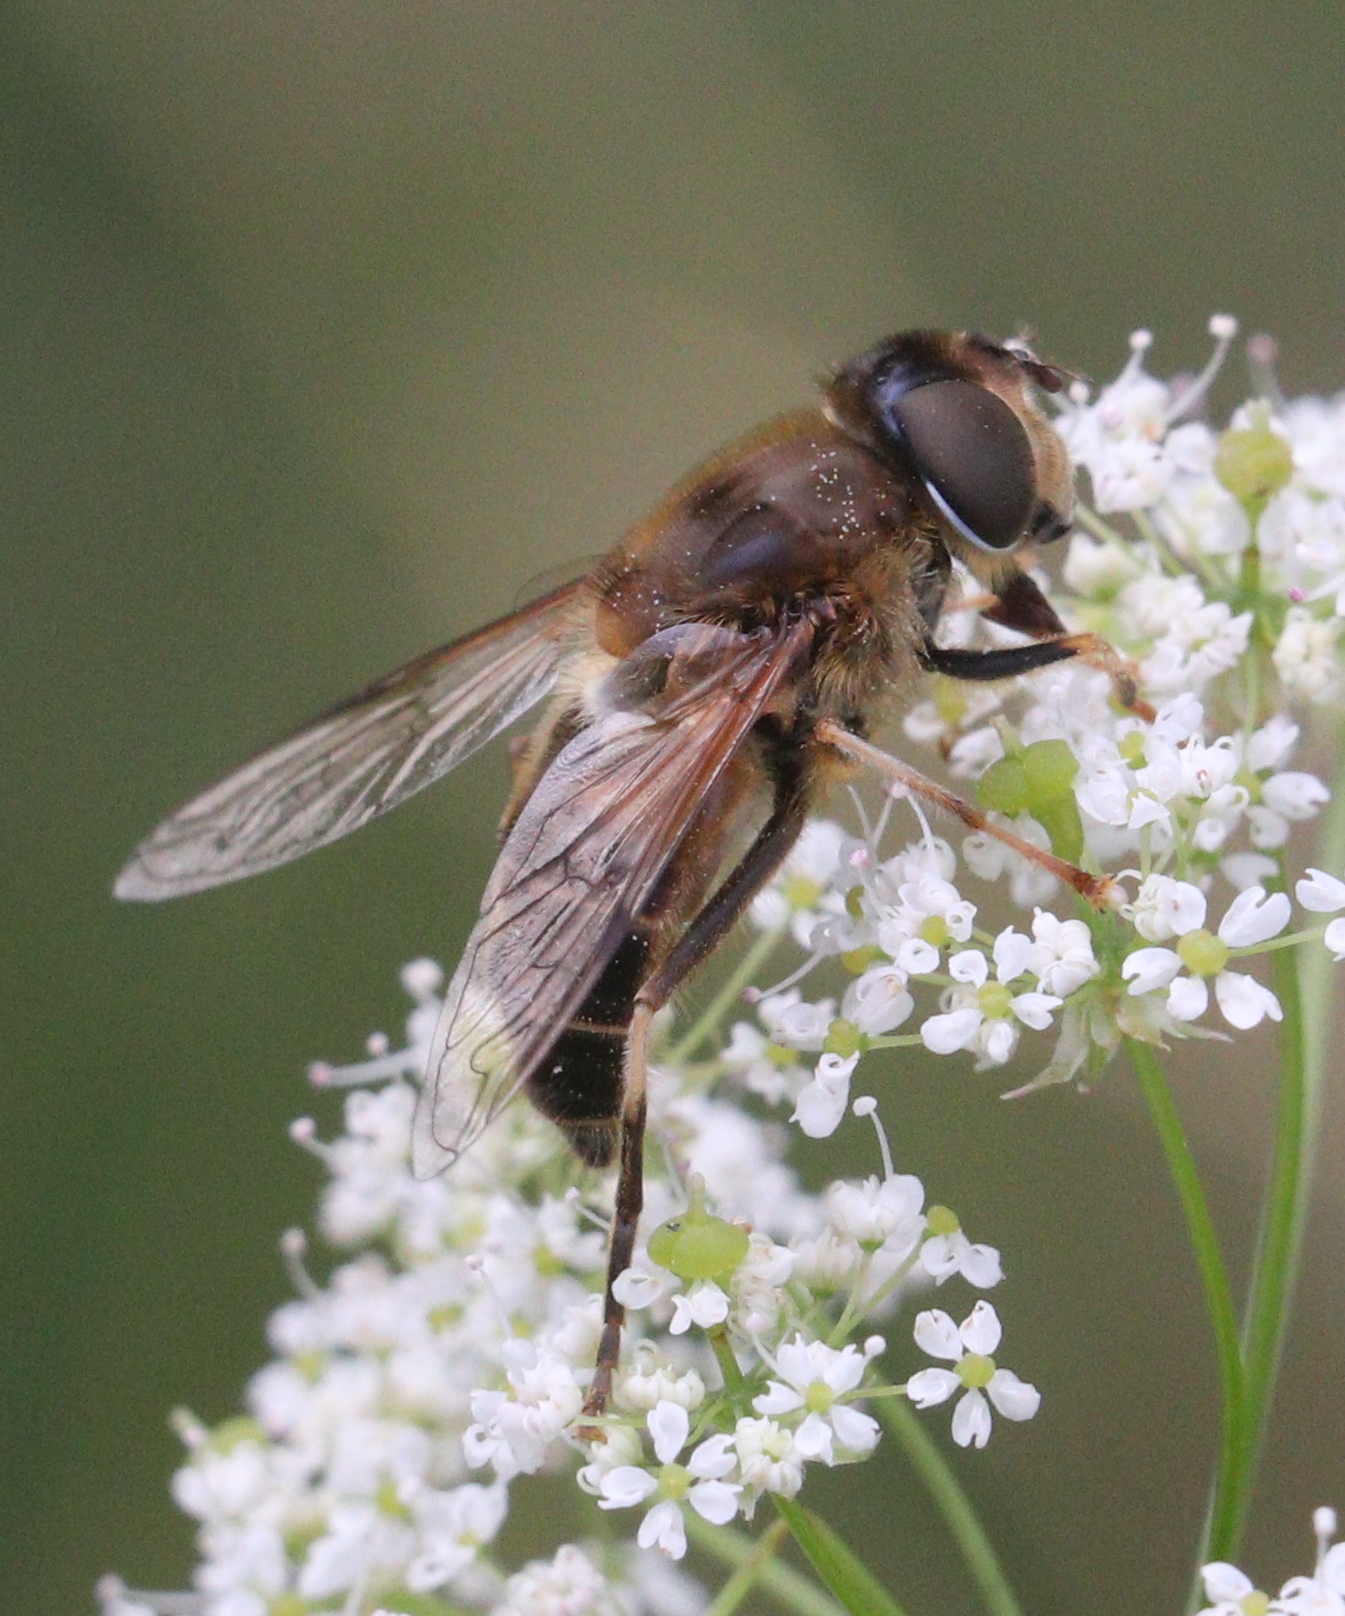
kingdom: Animalia
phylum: Arthropoda
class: Insecta
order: Diptera
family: Syrphidae
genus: Eristalis
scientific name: Eristalis pertinax
